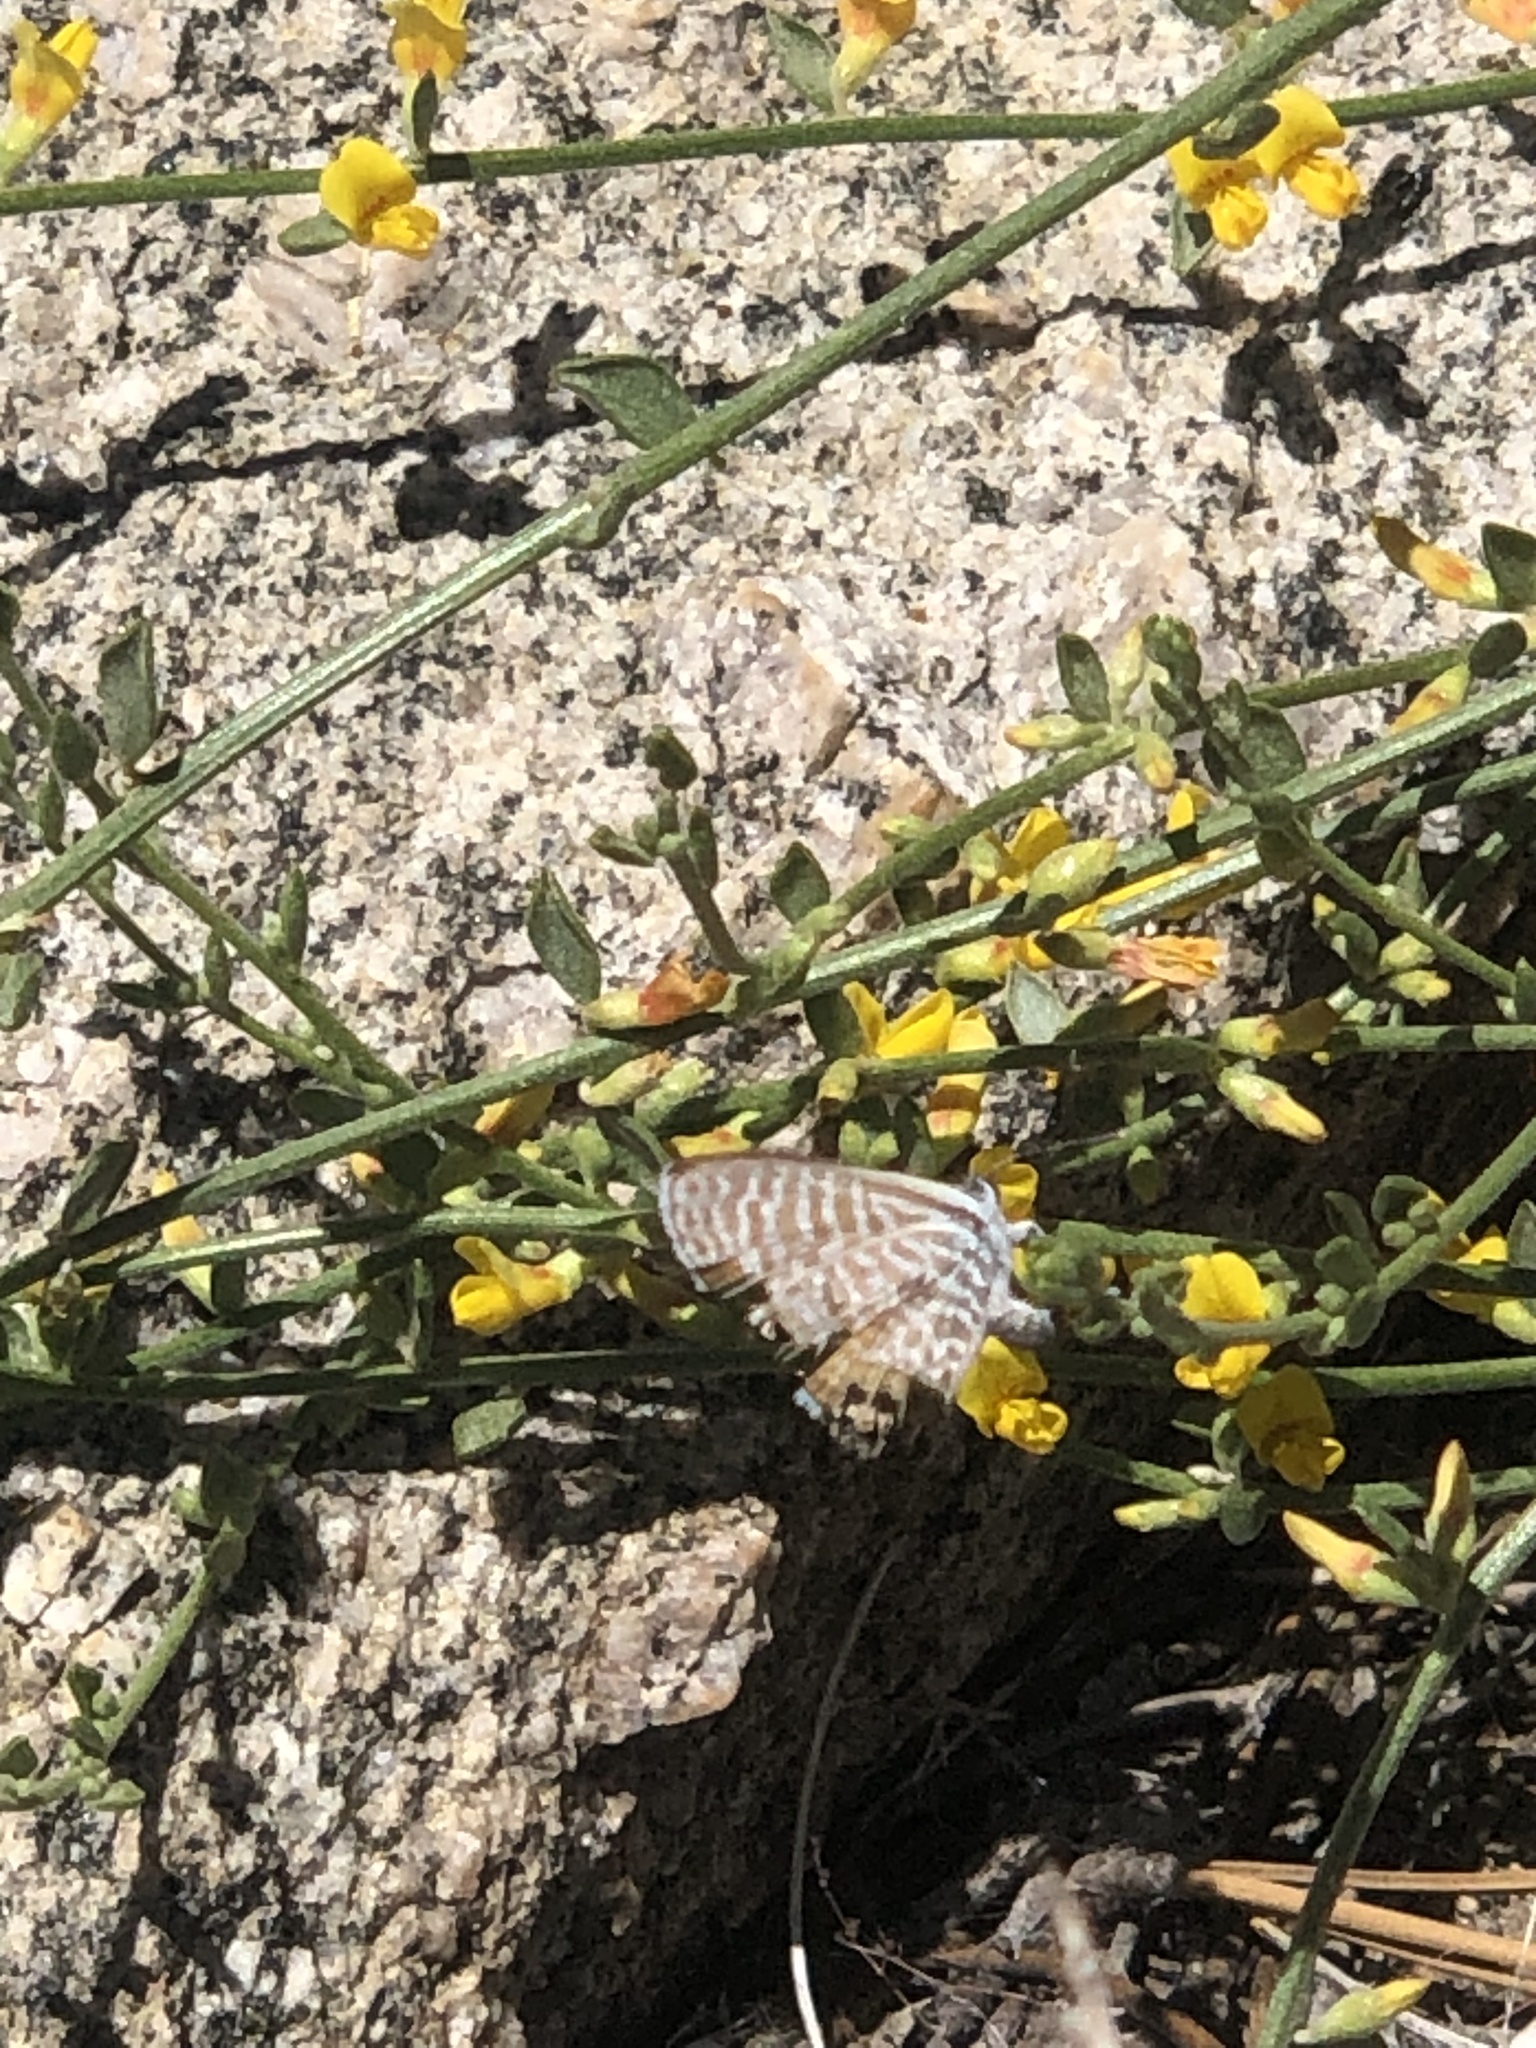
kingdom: Animalia
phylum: Arthropoda
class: Insecta
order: Lepidoptera
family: Lycaenidae
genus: Leptotes
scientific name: Leptotes marina
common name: Marine blue
